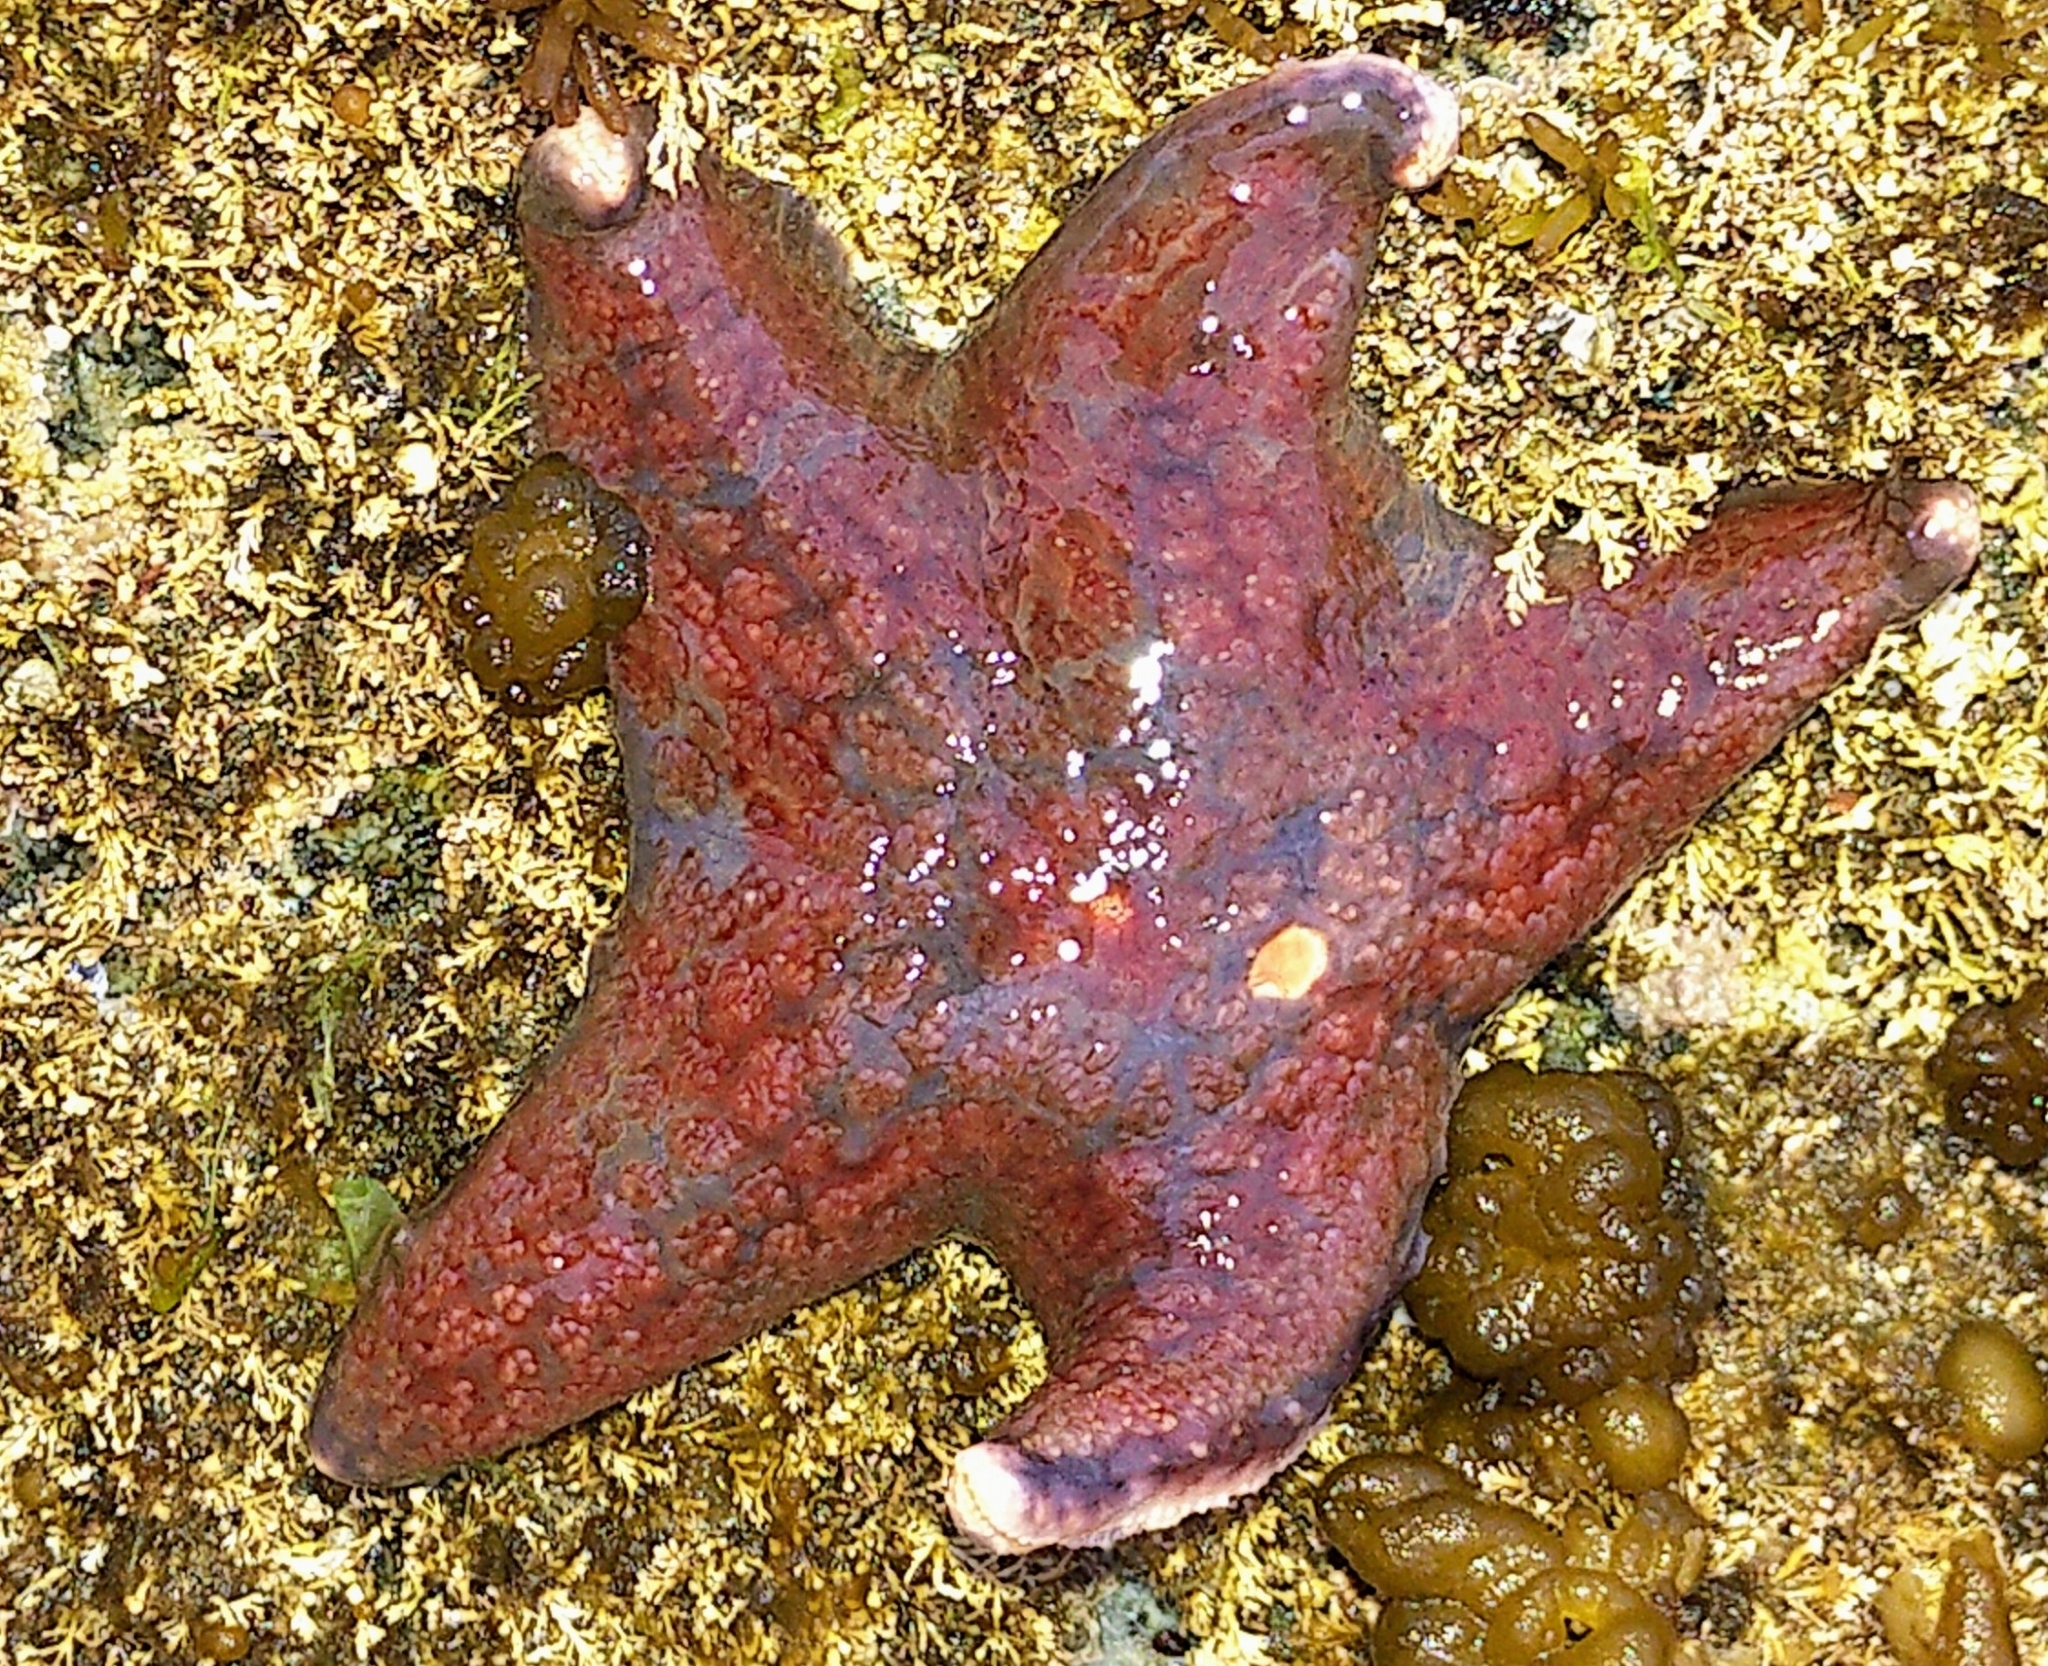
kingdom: Animalia
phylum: Echinodermata
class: Asteroidea
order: Valvatida
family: Asteropseidae
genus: Dermasterias
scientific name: Dermasterias imbricata
